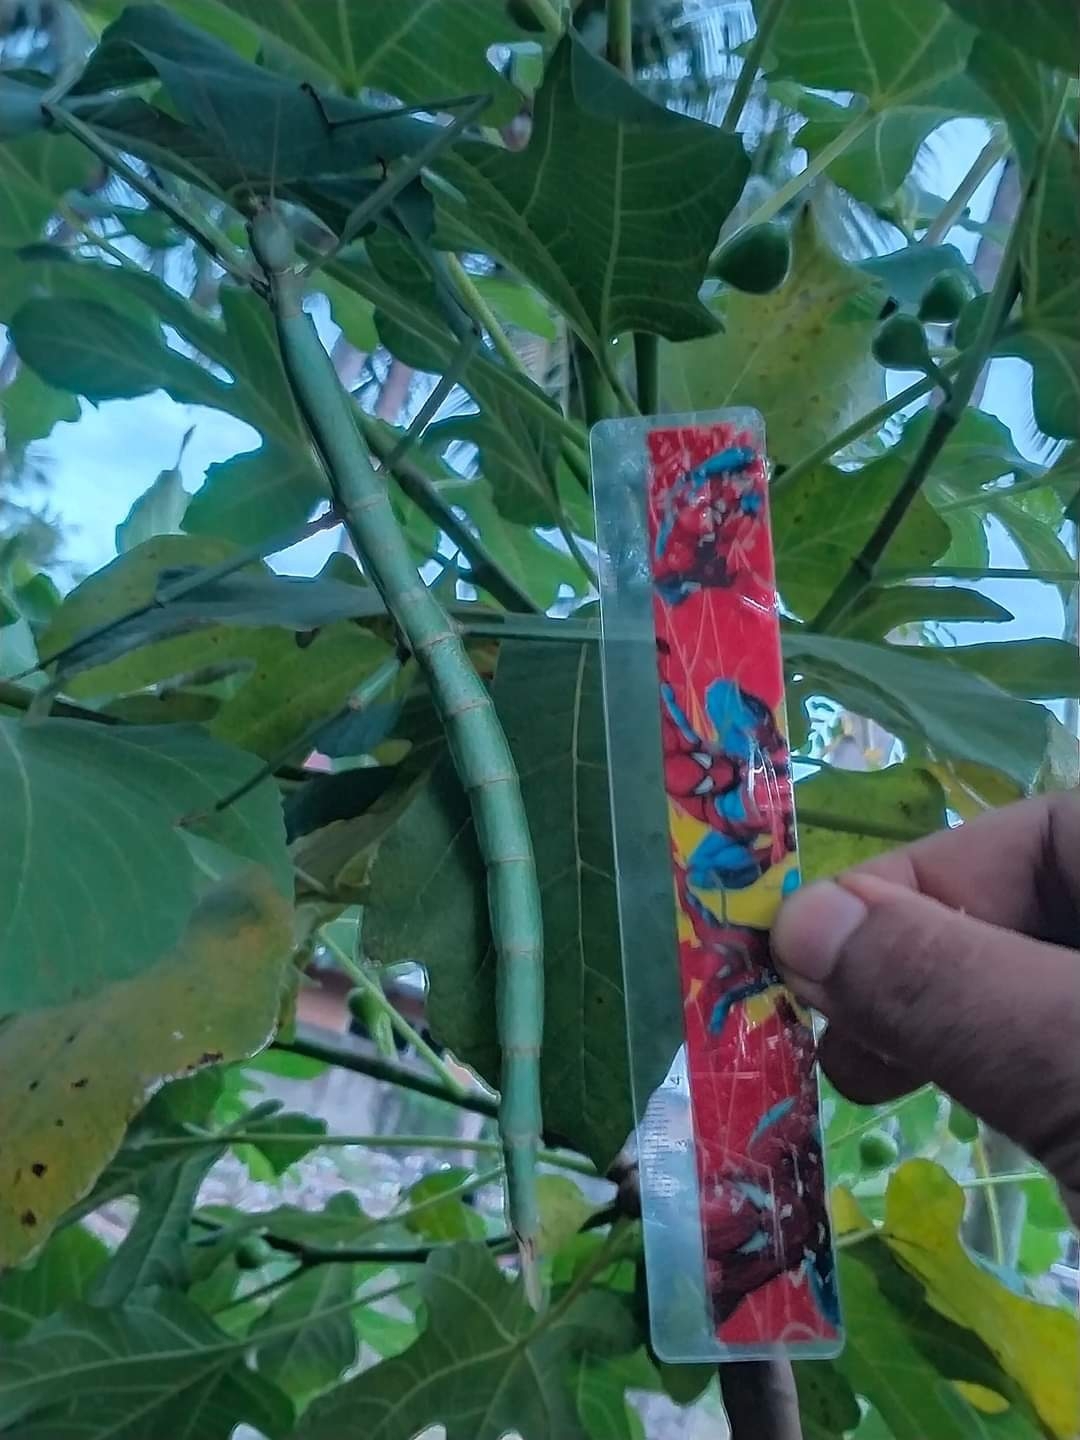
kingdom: Animalia
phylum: Arthropoda
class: Insecta
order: Phasmida
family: Phasmatidae
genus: Nesiophasma
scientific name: Nesiophasma spinulosum
